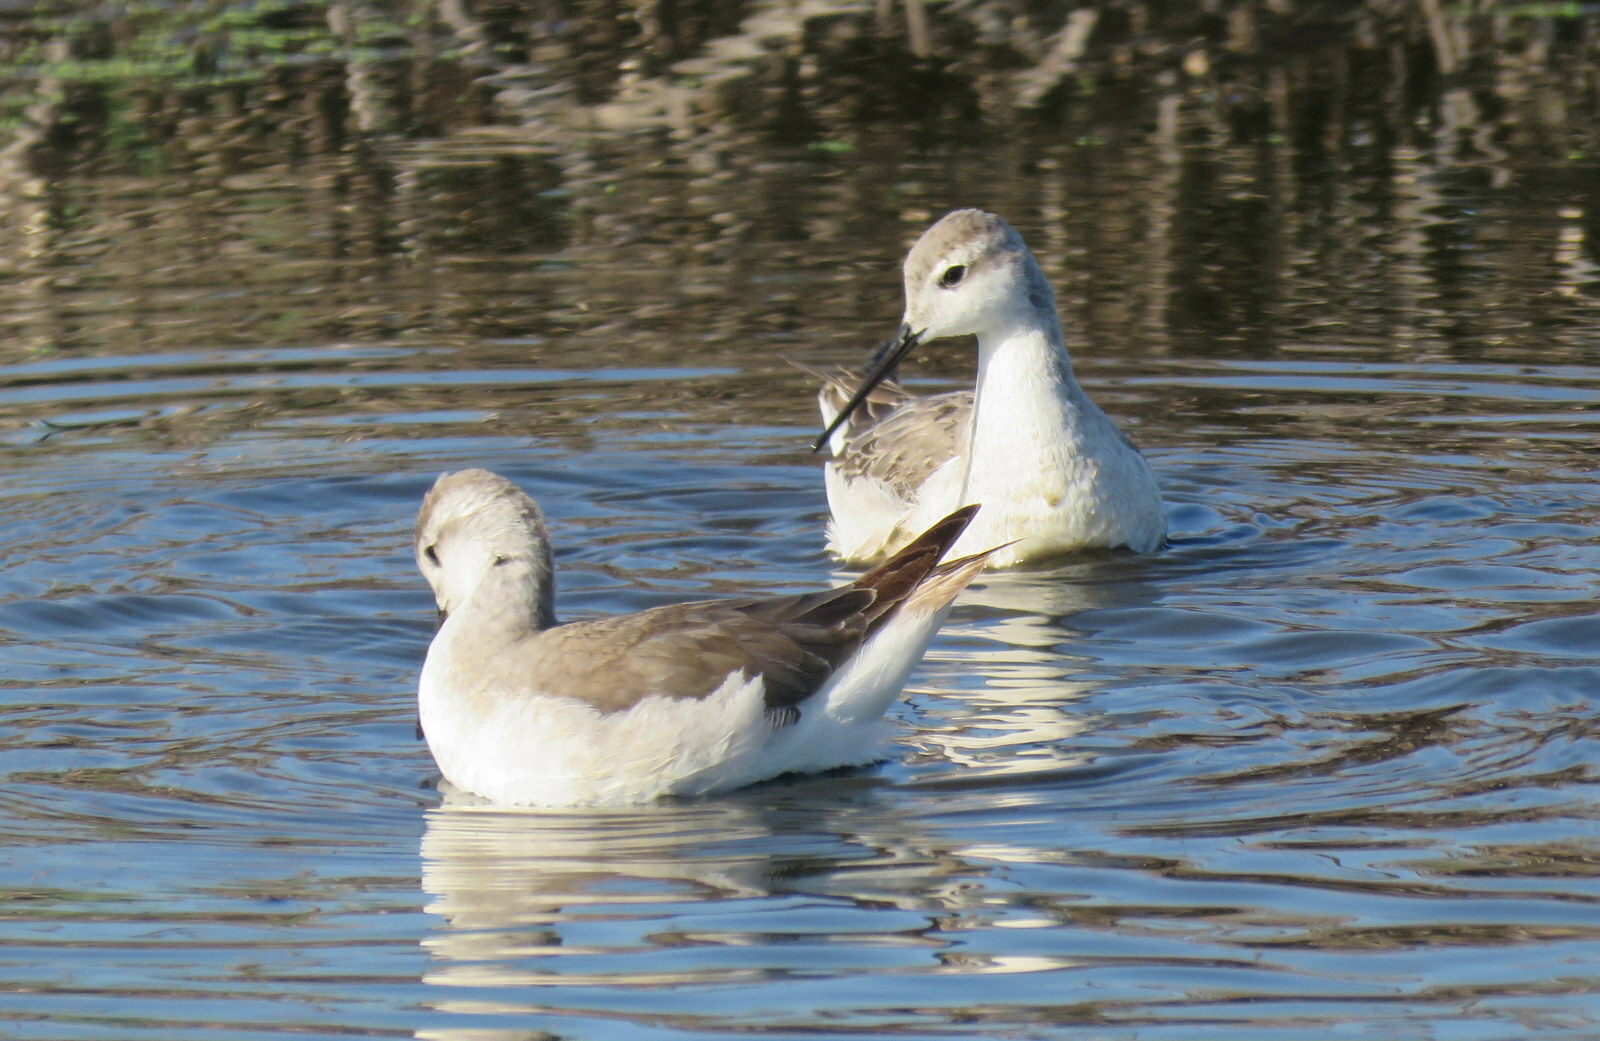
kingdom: Animalia
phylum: Chordata
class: Aves
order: Charadriiformes
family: Scolopacidae
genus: Phalaropus
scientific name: Phalaropus tricolor
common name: Wilson's phalarope
